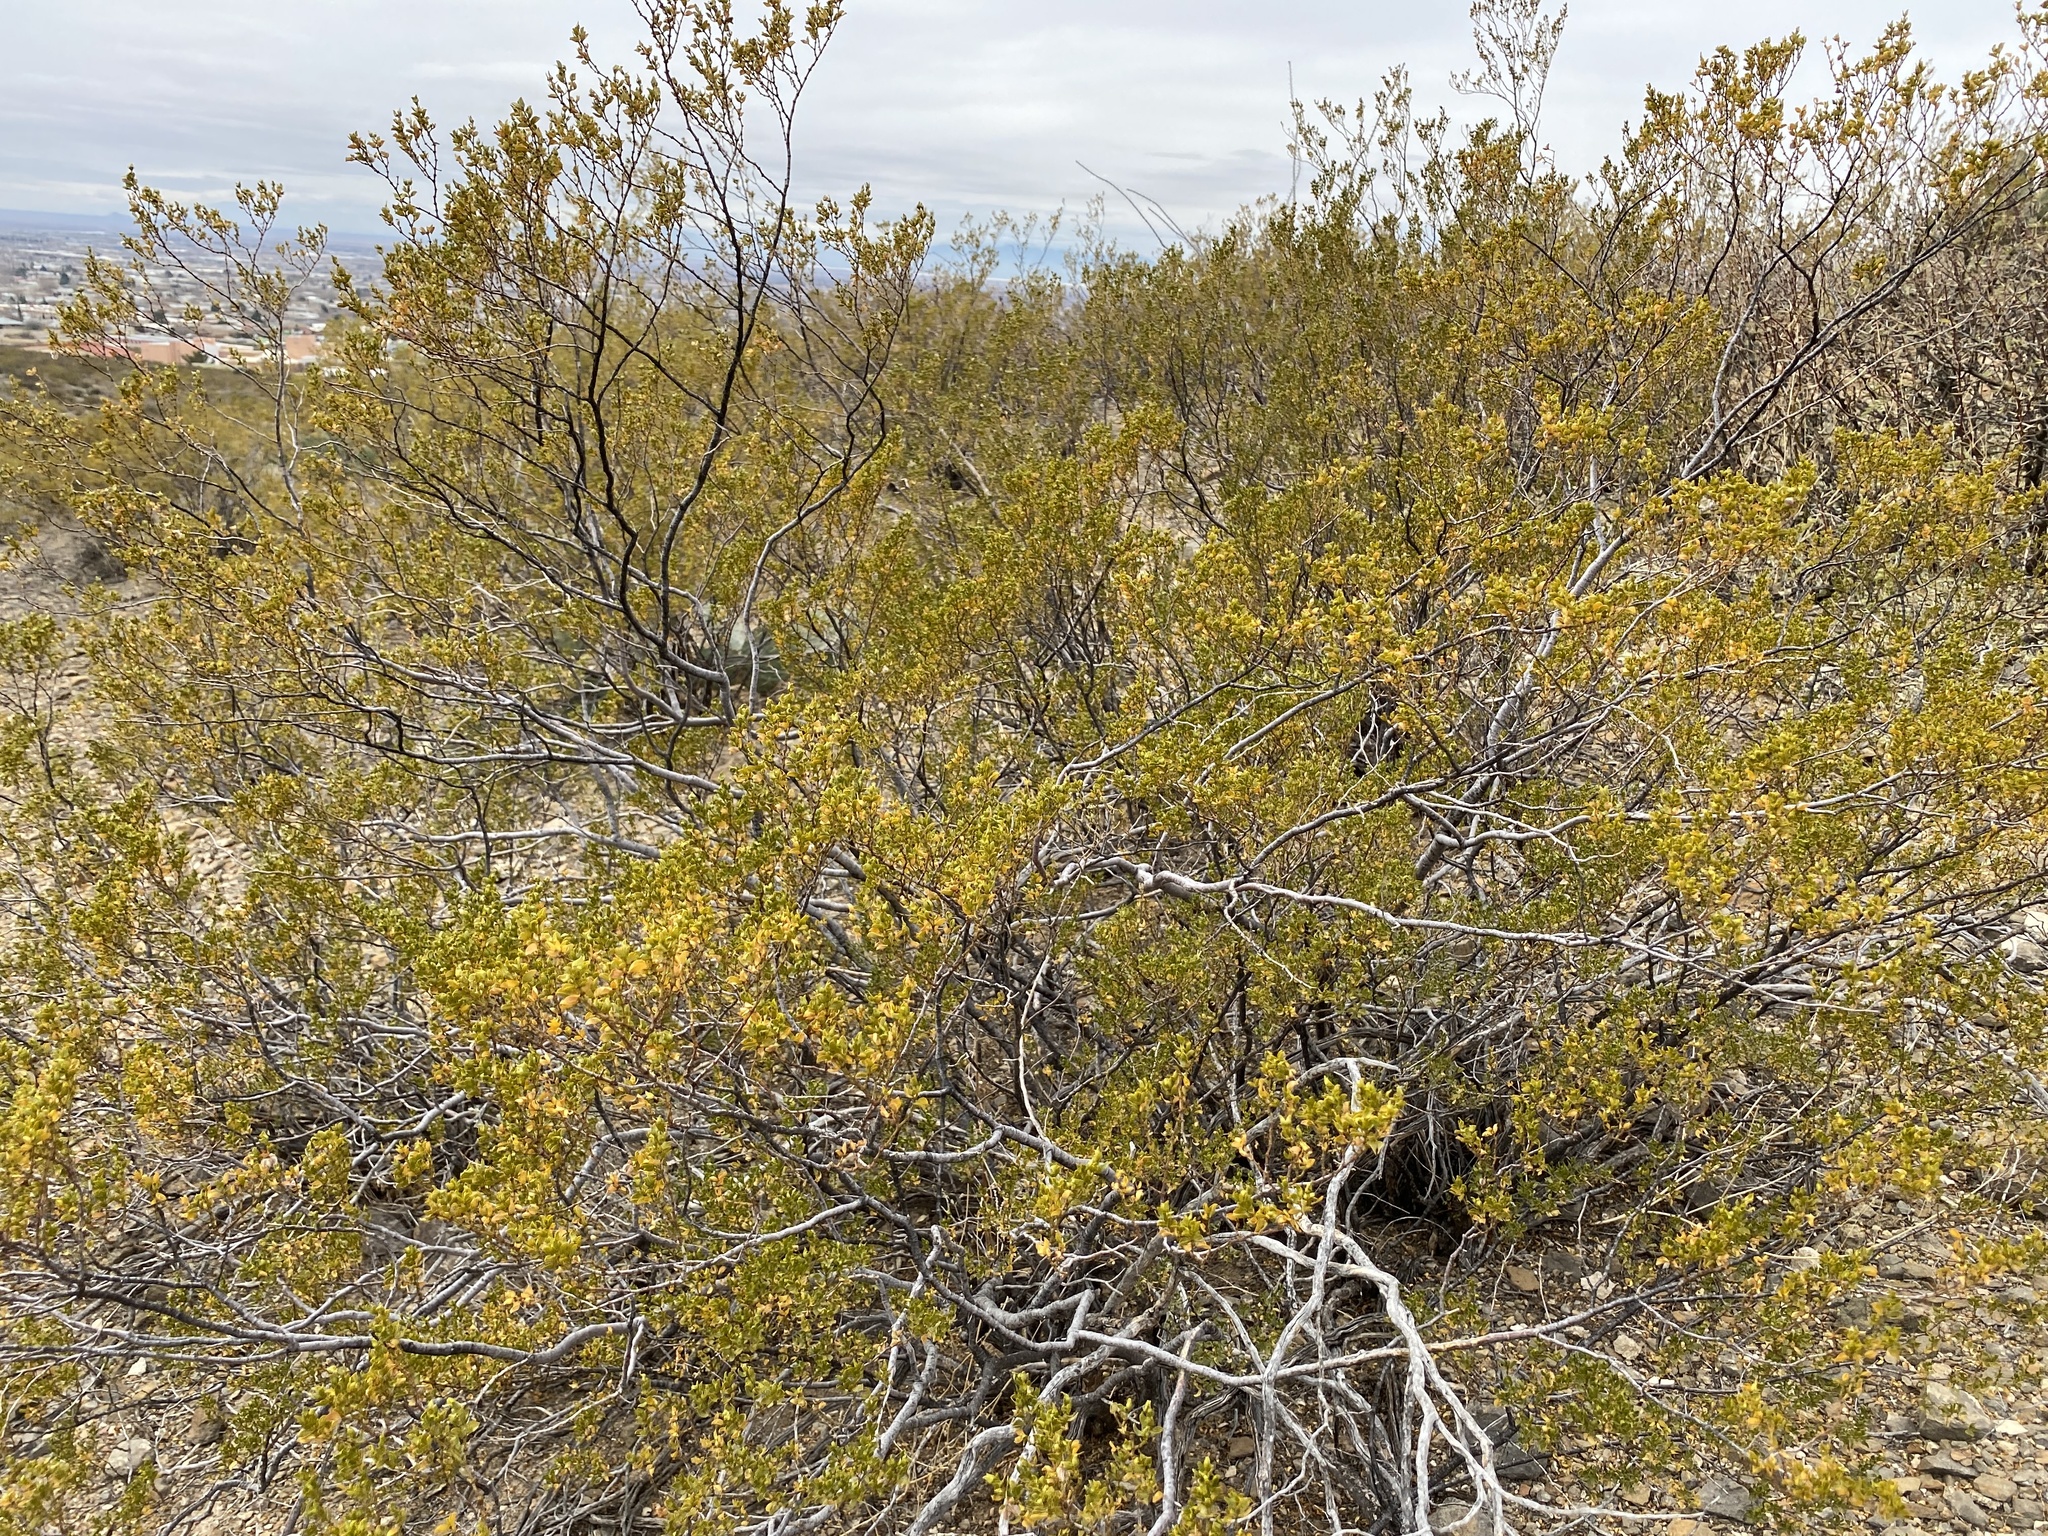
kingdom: Plantae
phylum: Tracheophyta
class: Magnoliopsida
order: Zygophyllales
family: Zygophyllaceae
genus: Larrea
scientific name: Larrea tridentata
